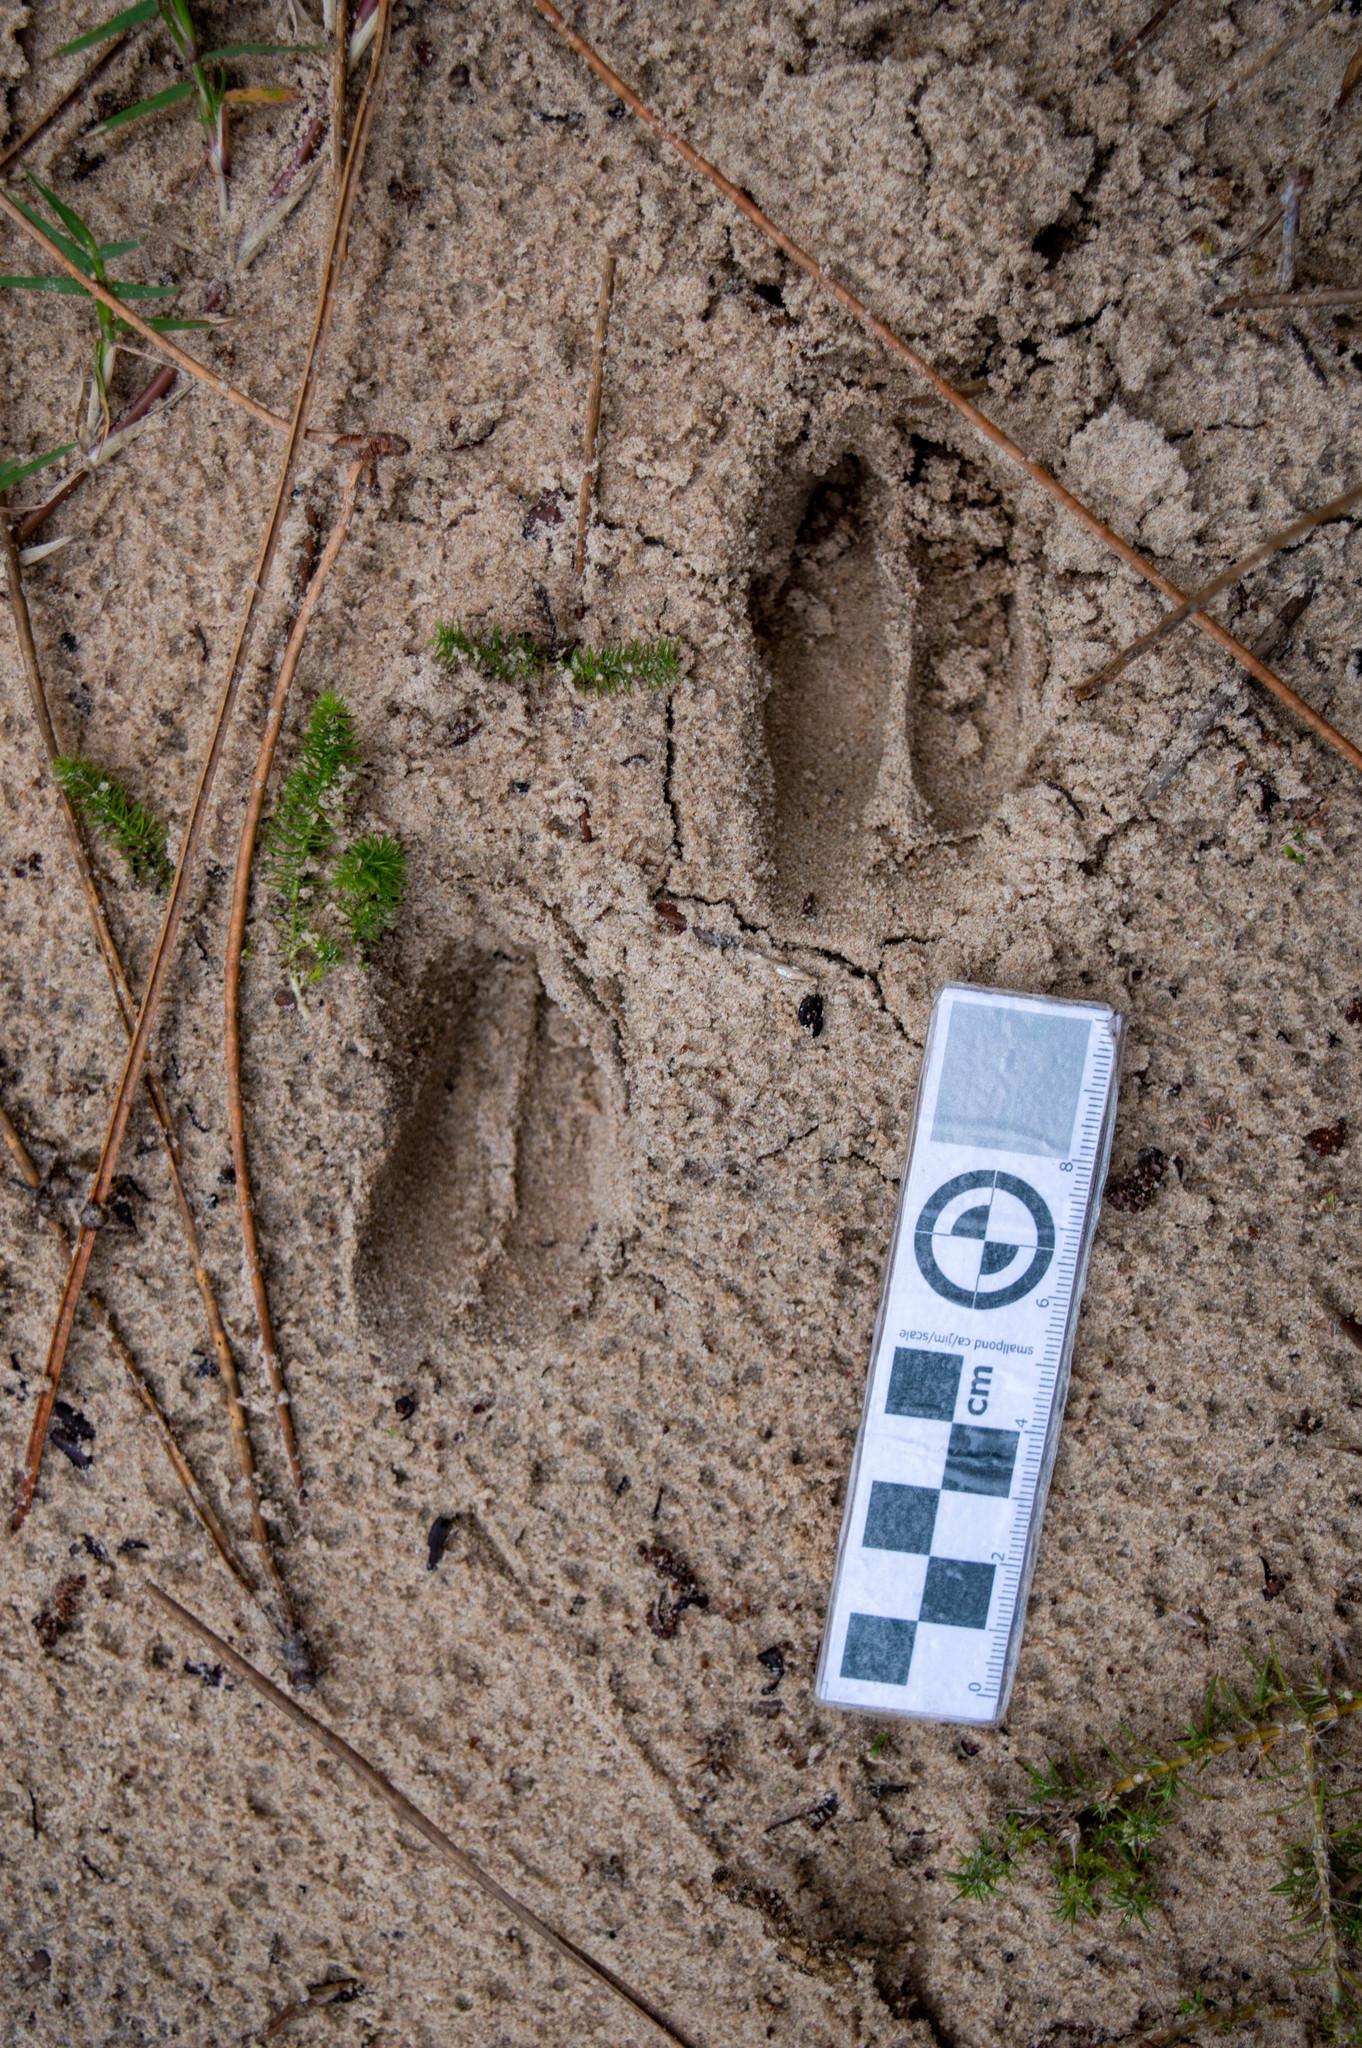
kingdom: Animalia
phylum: Chordata
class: Mammalia
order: Artiodactyla
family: Cervidae
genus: Axis
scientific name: Axis axis
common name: Chital
